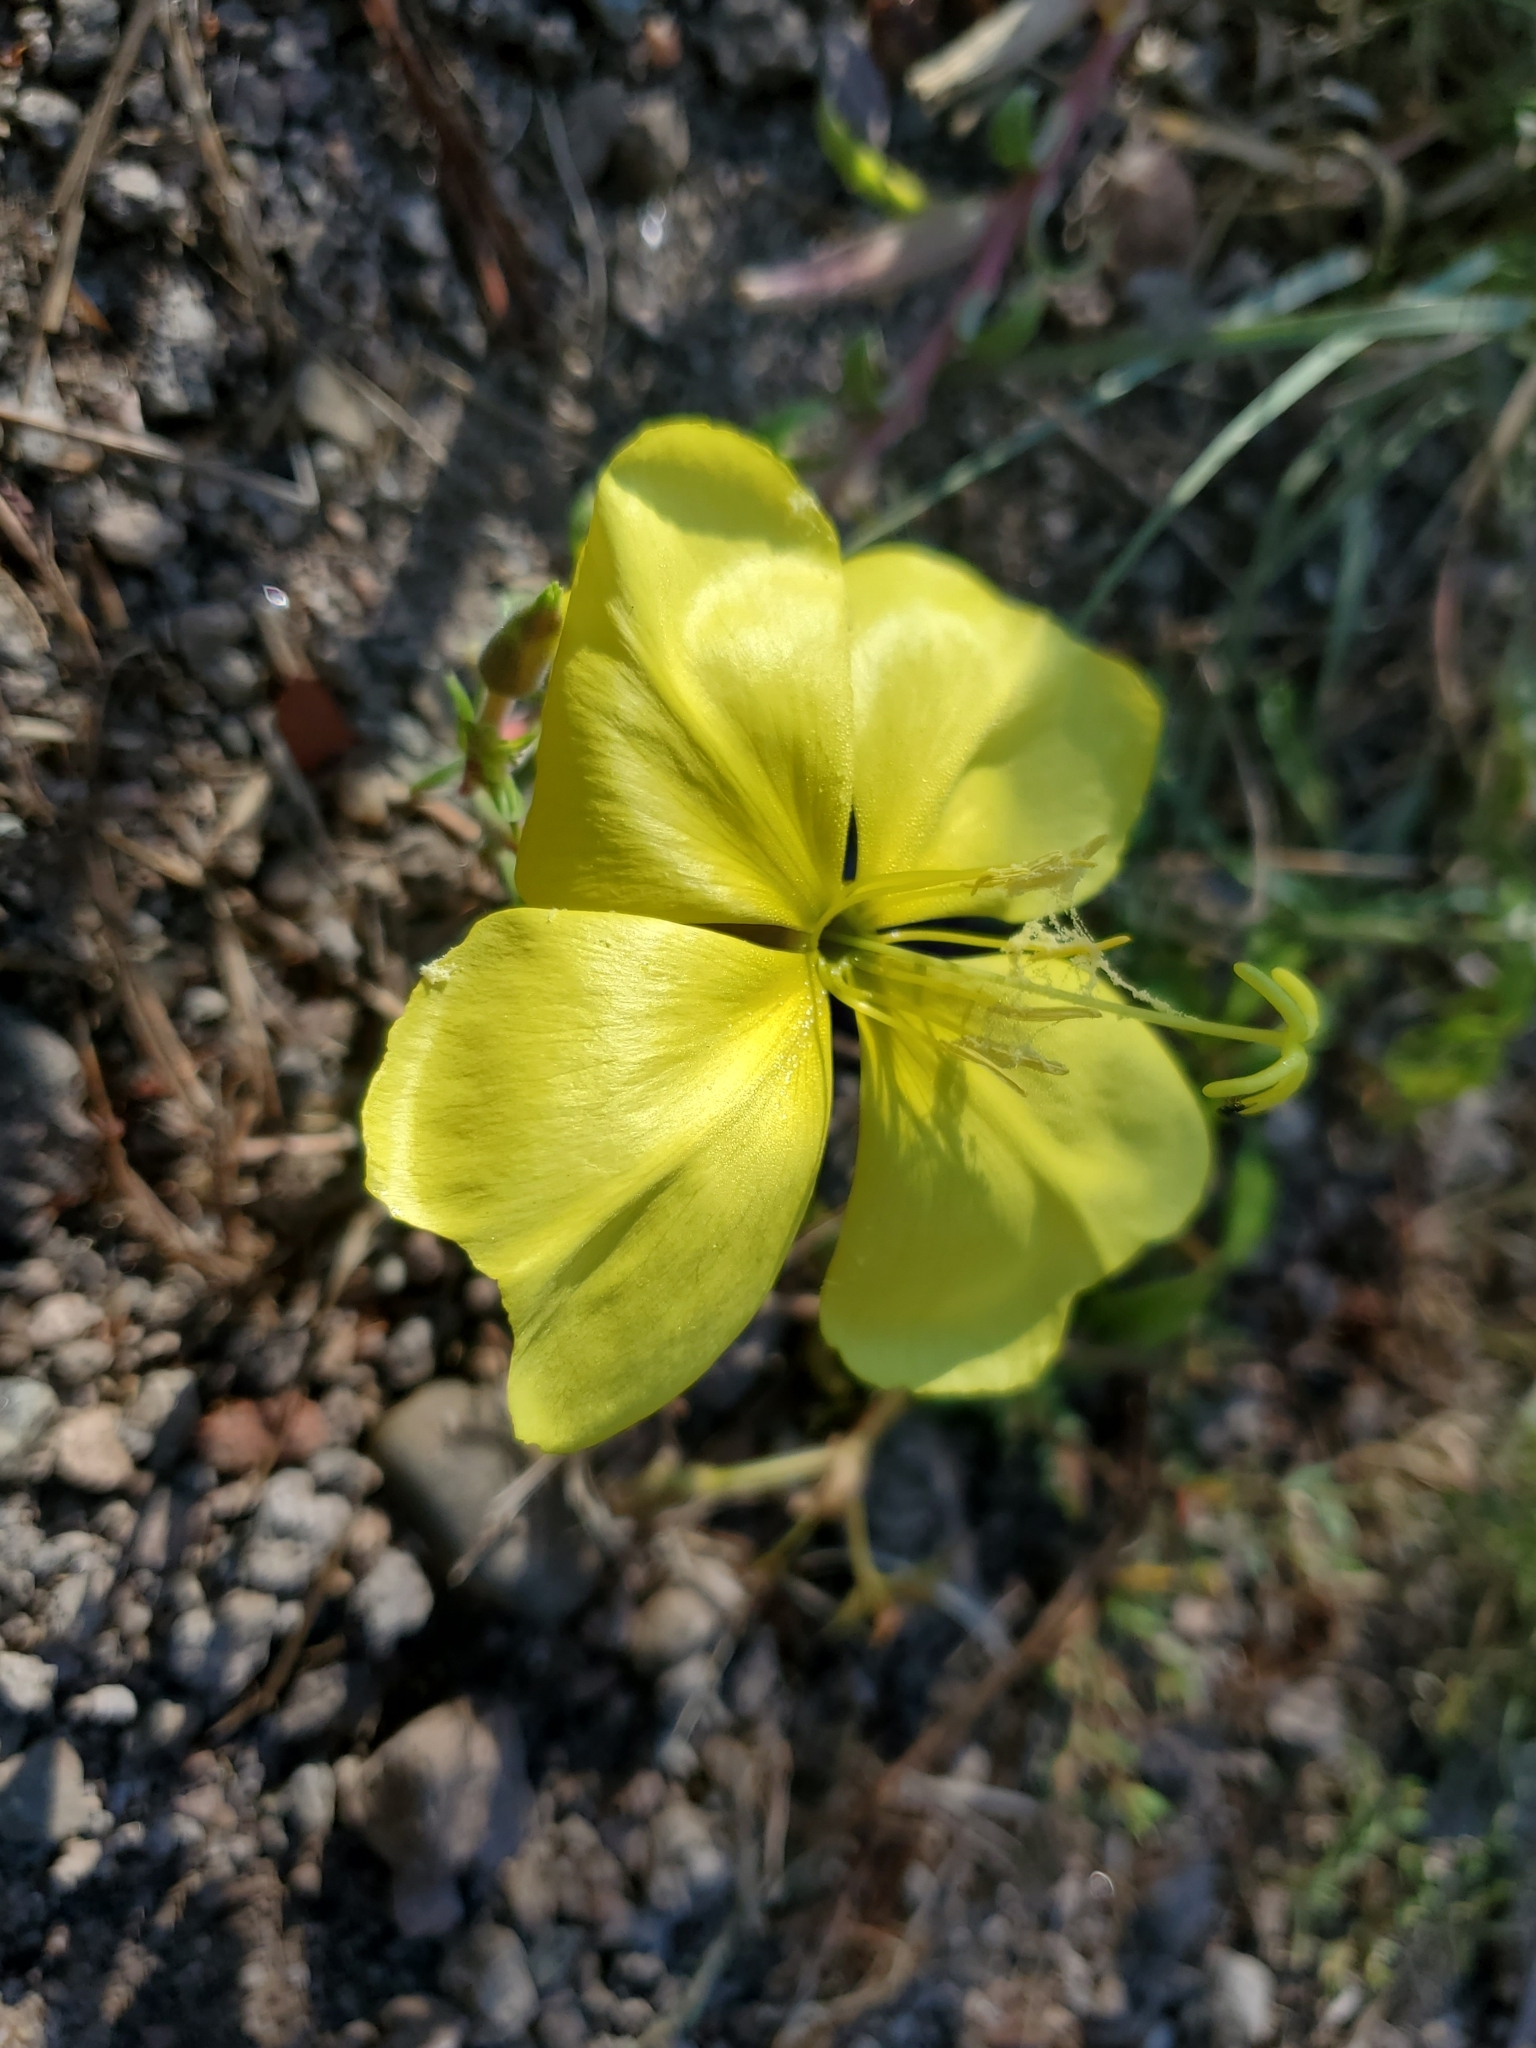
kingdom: Plantae
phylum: Tracheophyta
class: Magnoliopsida
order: Myrtales
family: Onagraceae
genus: Oenothera
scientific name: Oenothera elata
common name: Hooker's evening-primrose
